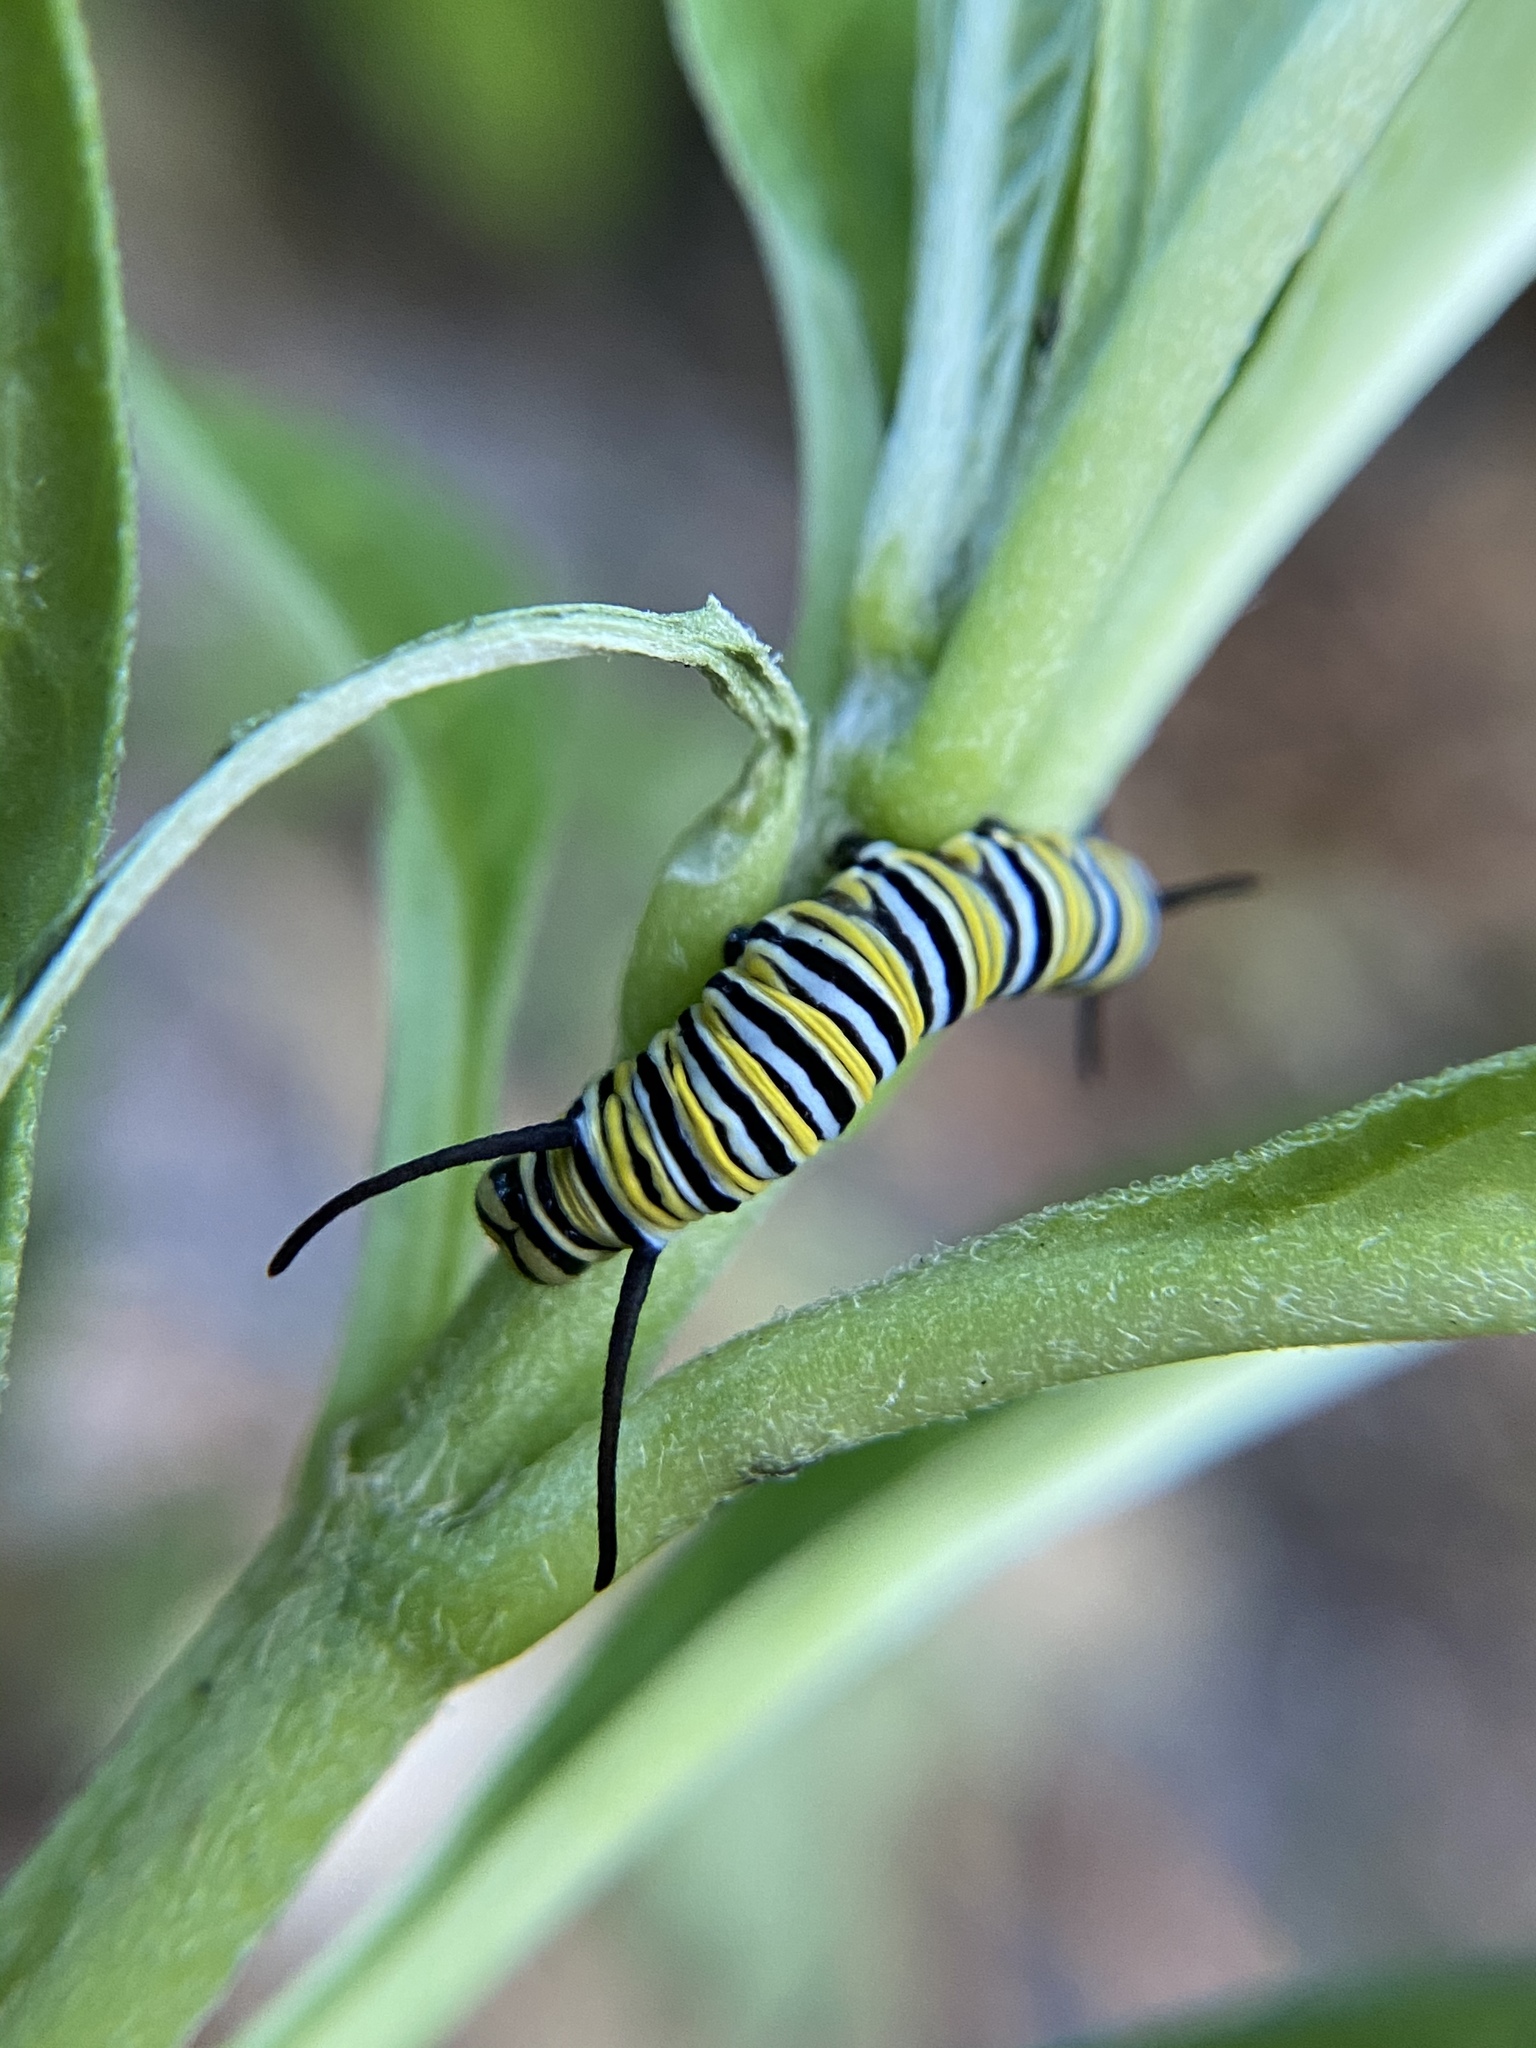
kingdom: Animalia
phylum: Arthropoda
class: Insecta
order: Lepidoptera
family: Nymphalidae
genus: Danaus
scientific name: Danaus plexippus
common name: Monarch
